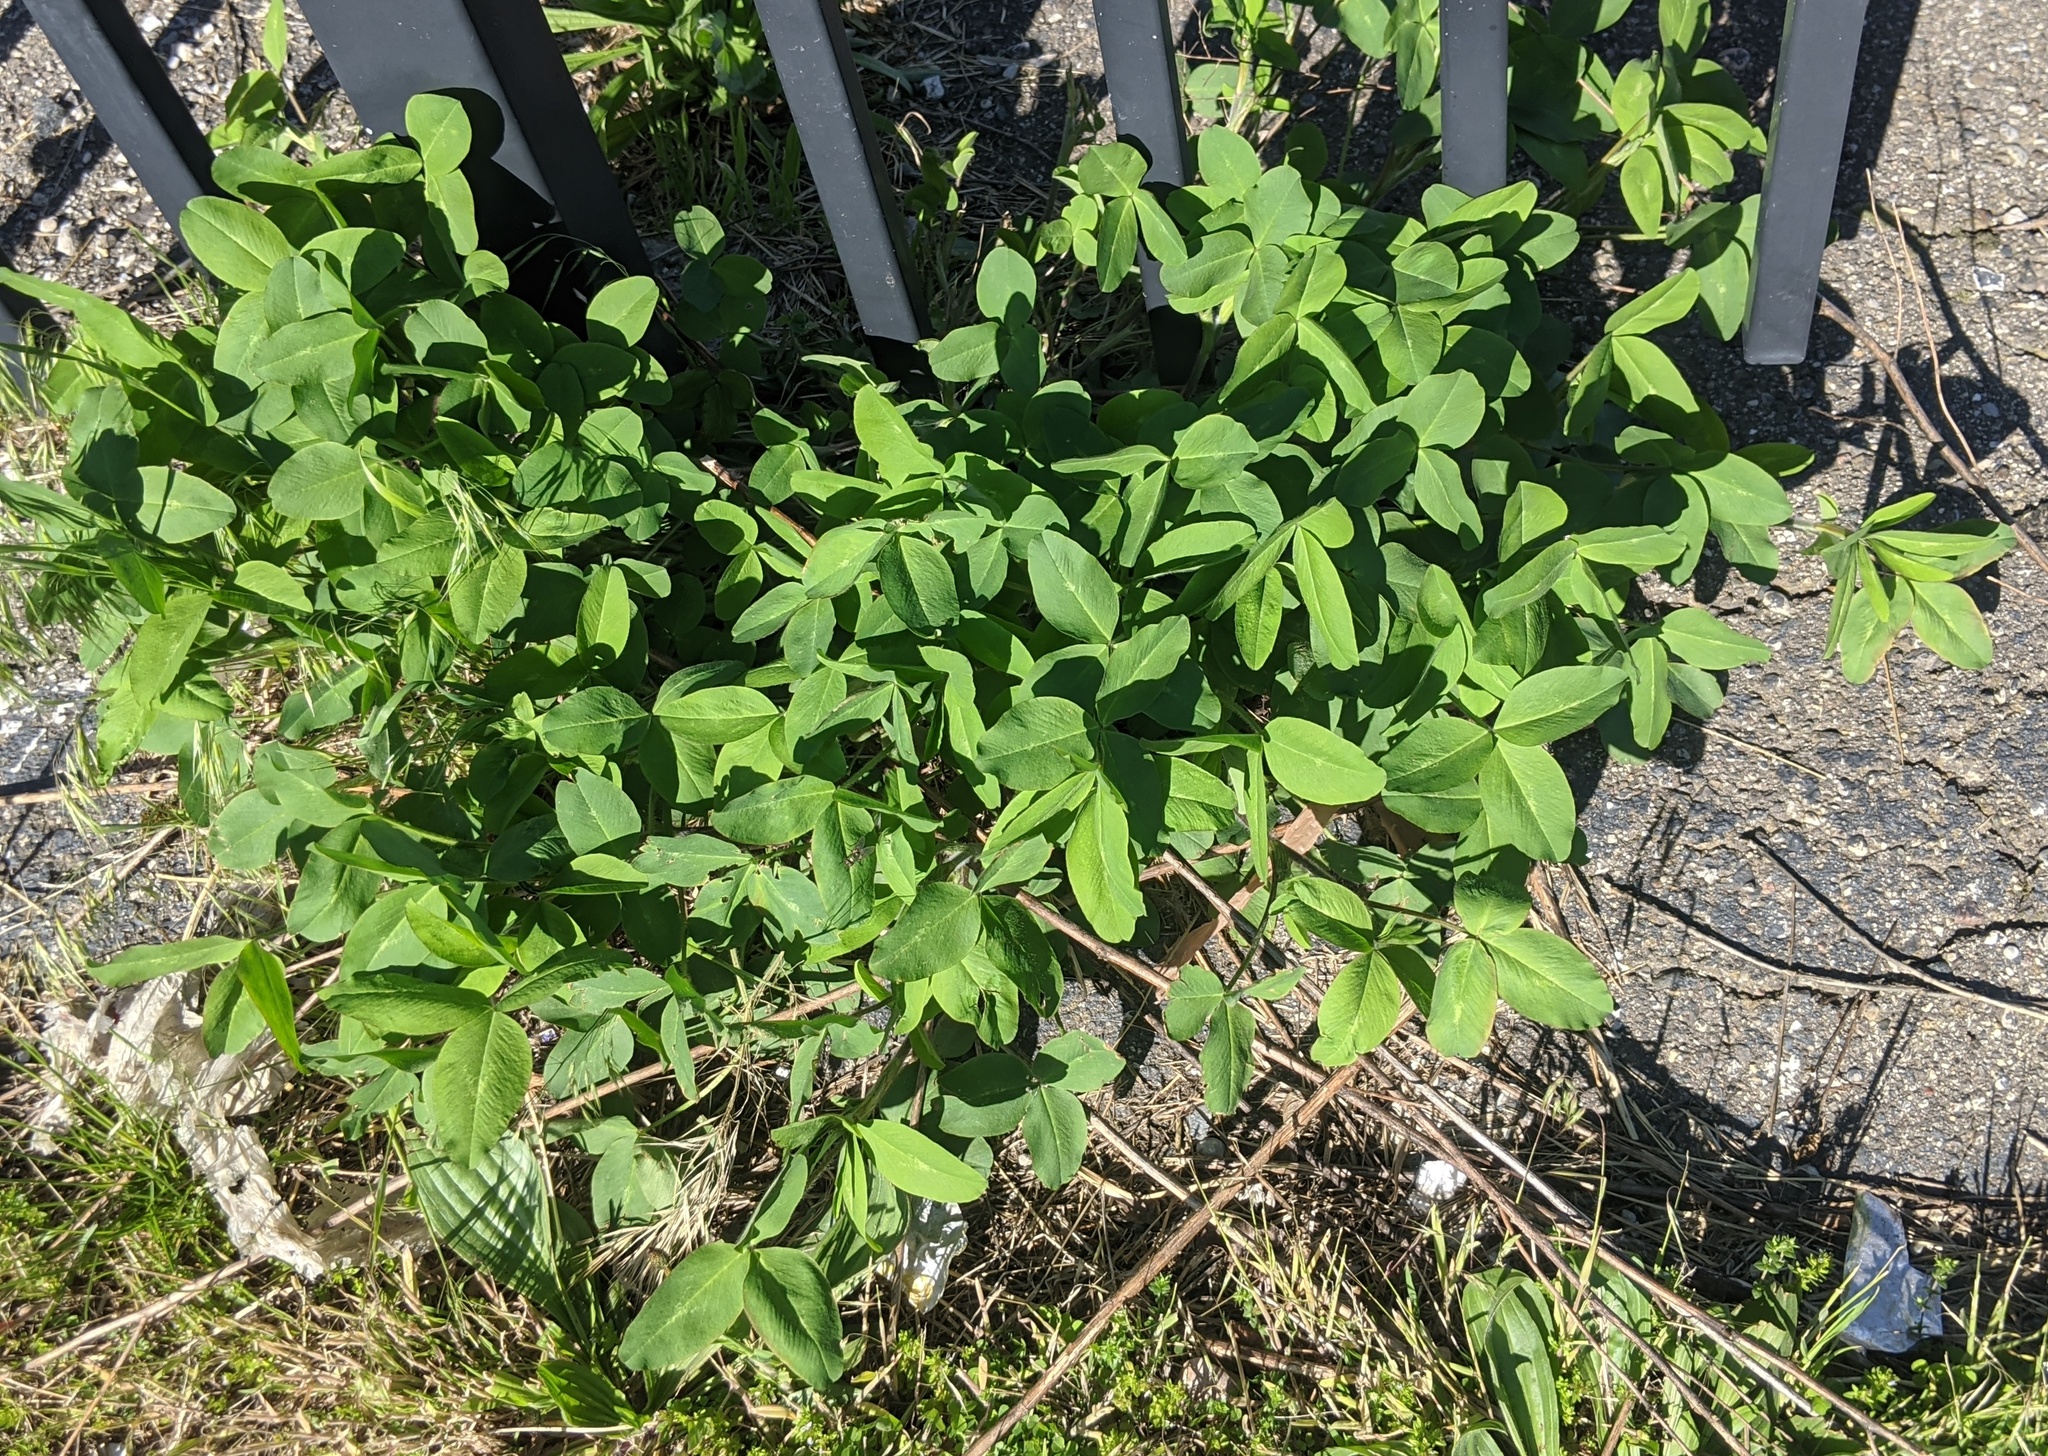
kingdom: Plantae
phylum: Tracheophyta
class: Magnoliopsida
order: Fabales
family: Fabaceae
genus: Trifolium
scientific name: Trifolium hybridum
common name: Alsike clover
